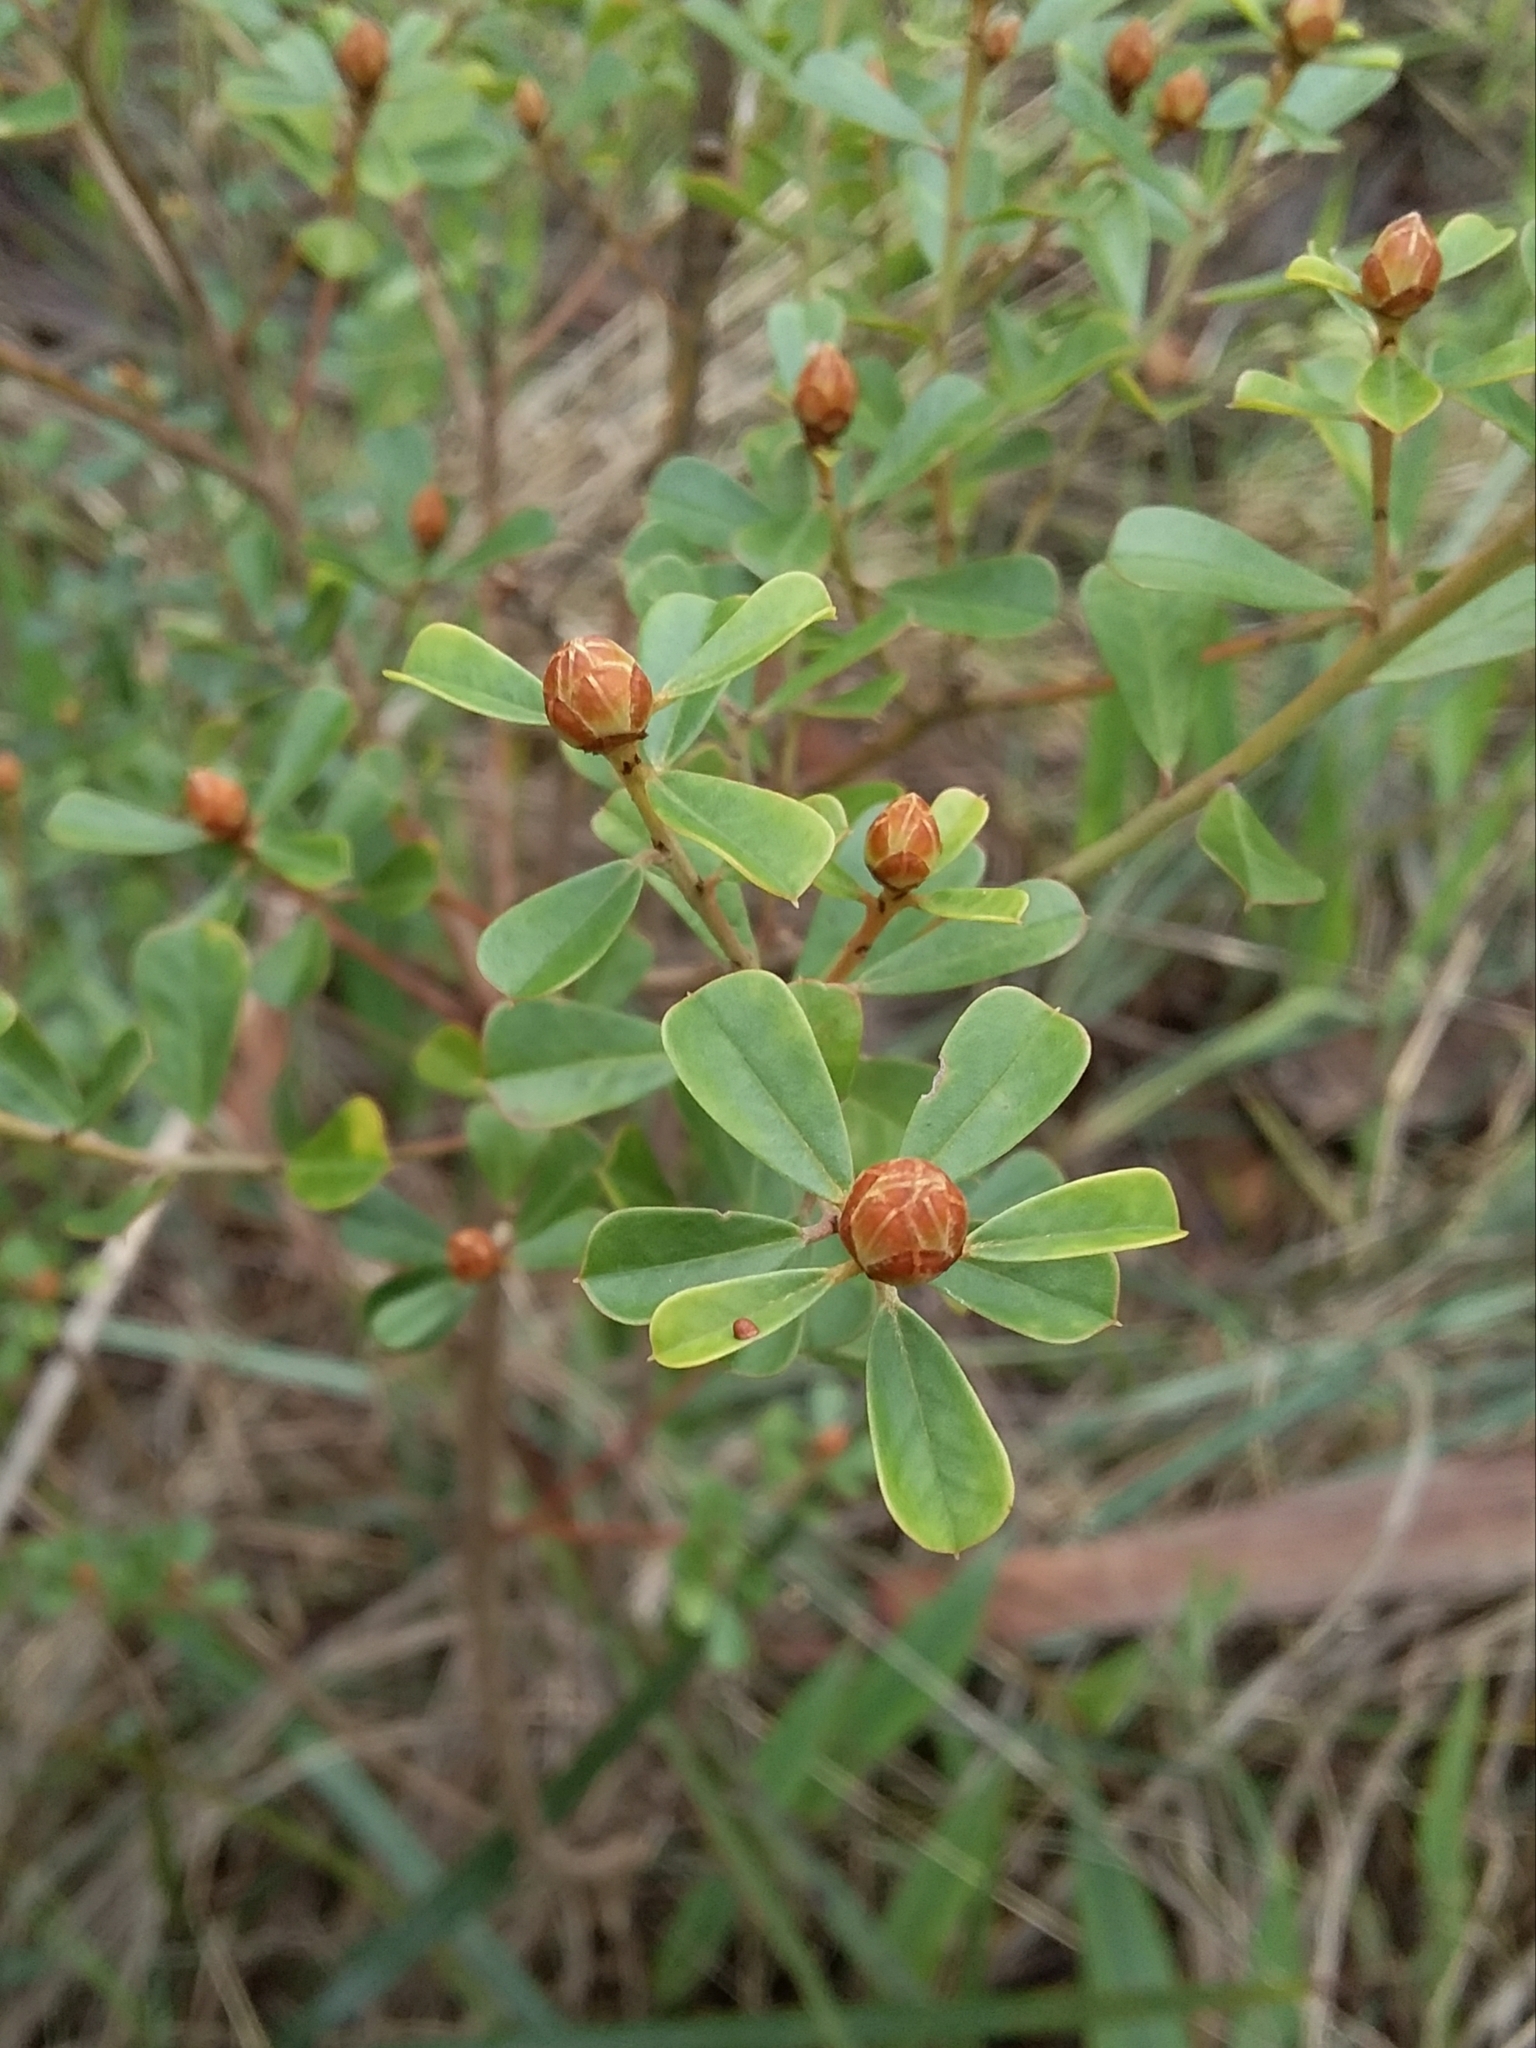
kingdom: Plantae
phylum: Tracheophyta
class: Magnoliopsida
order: Fabales
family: Fabaceae
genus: Pultenaea
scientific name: Pultenaea daphnoides
